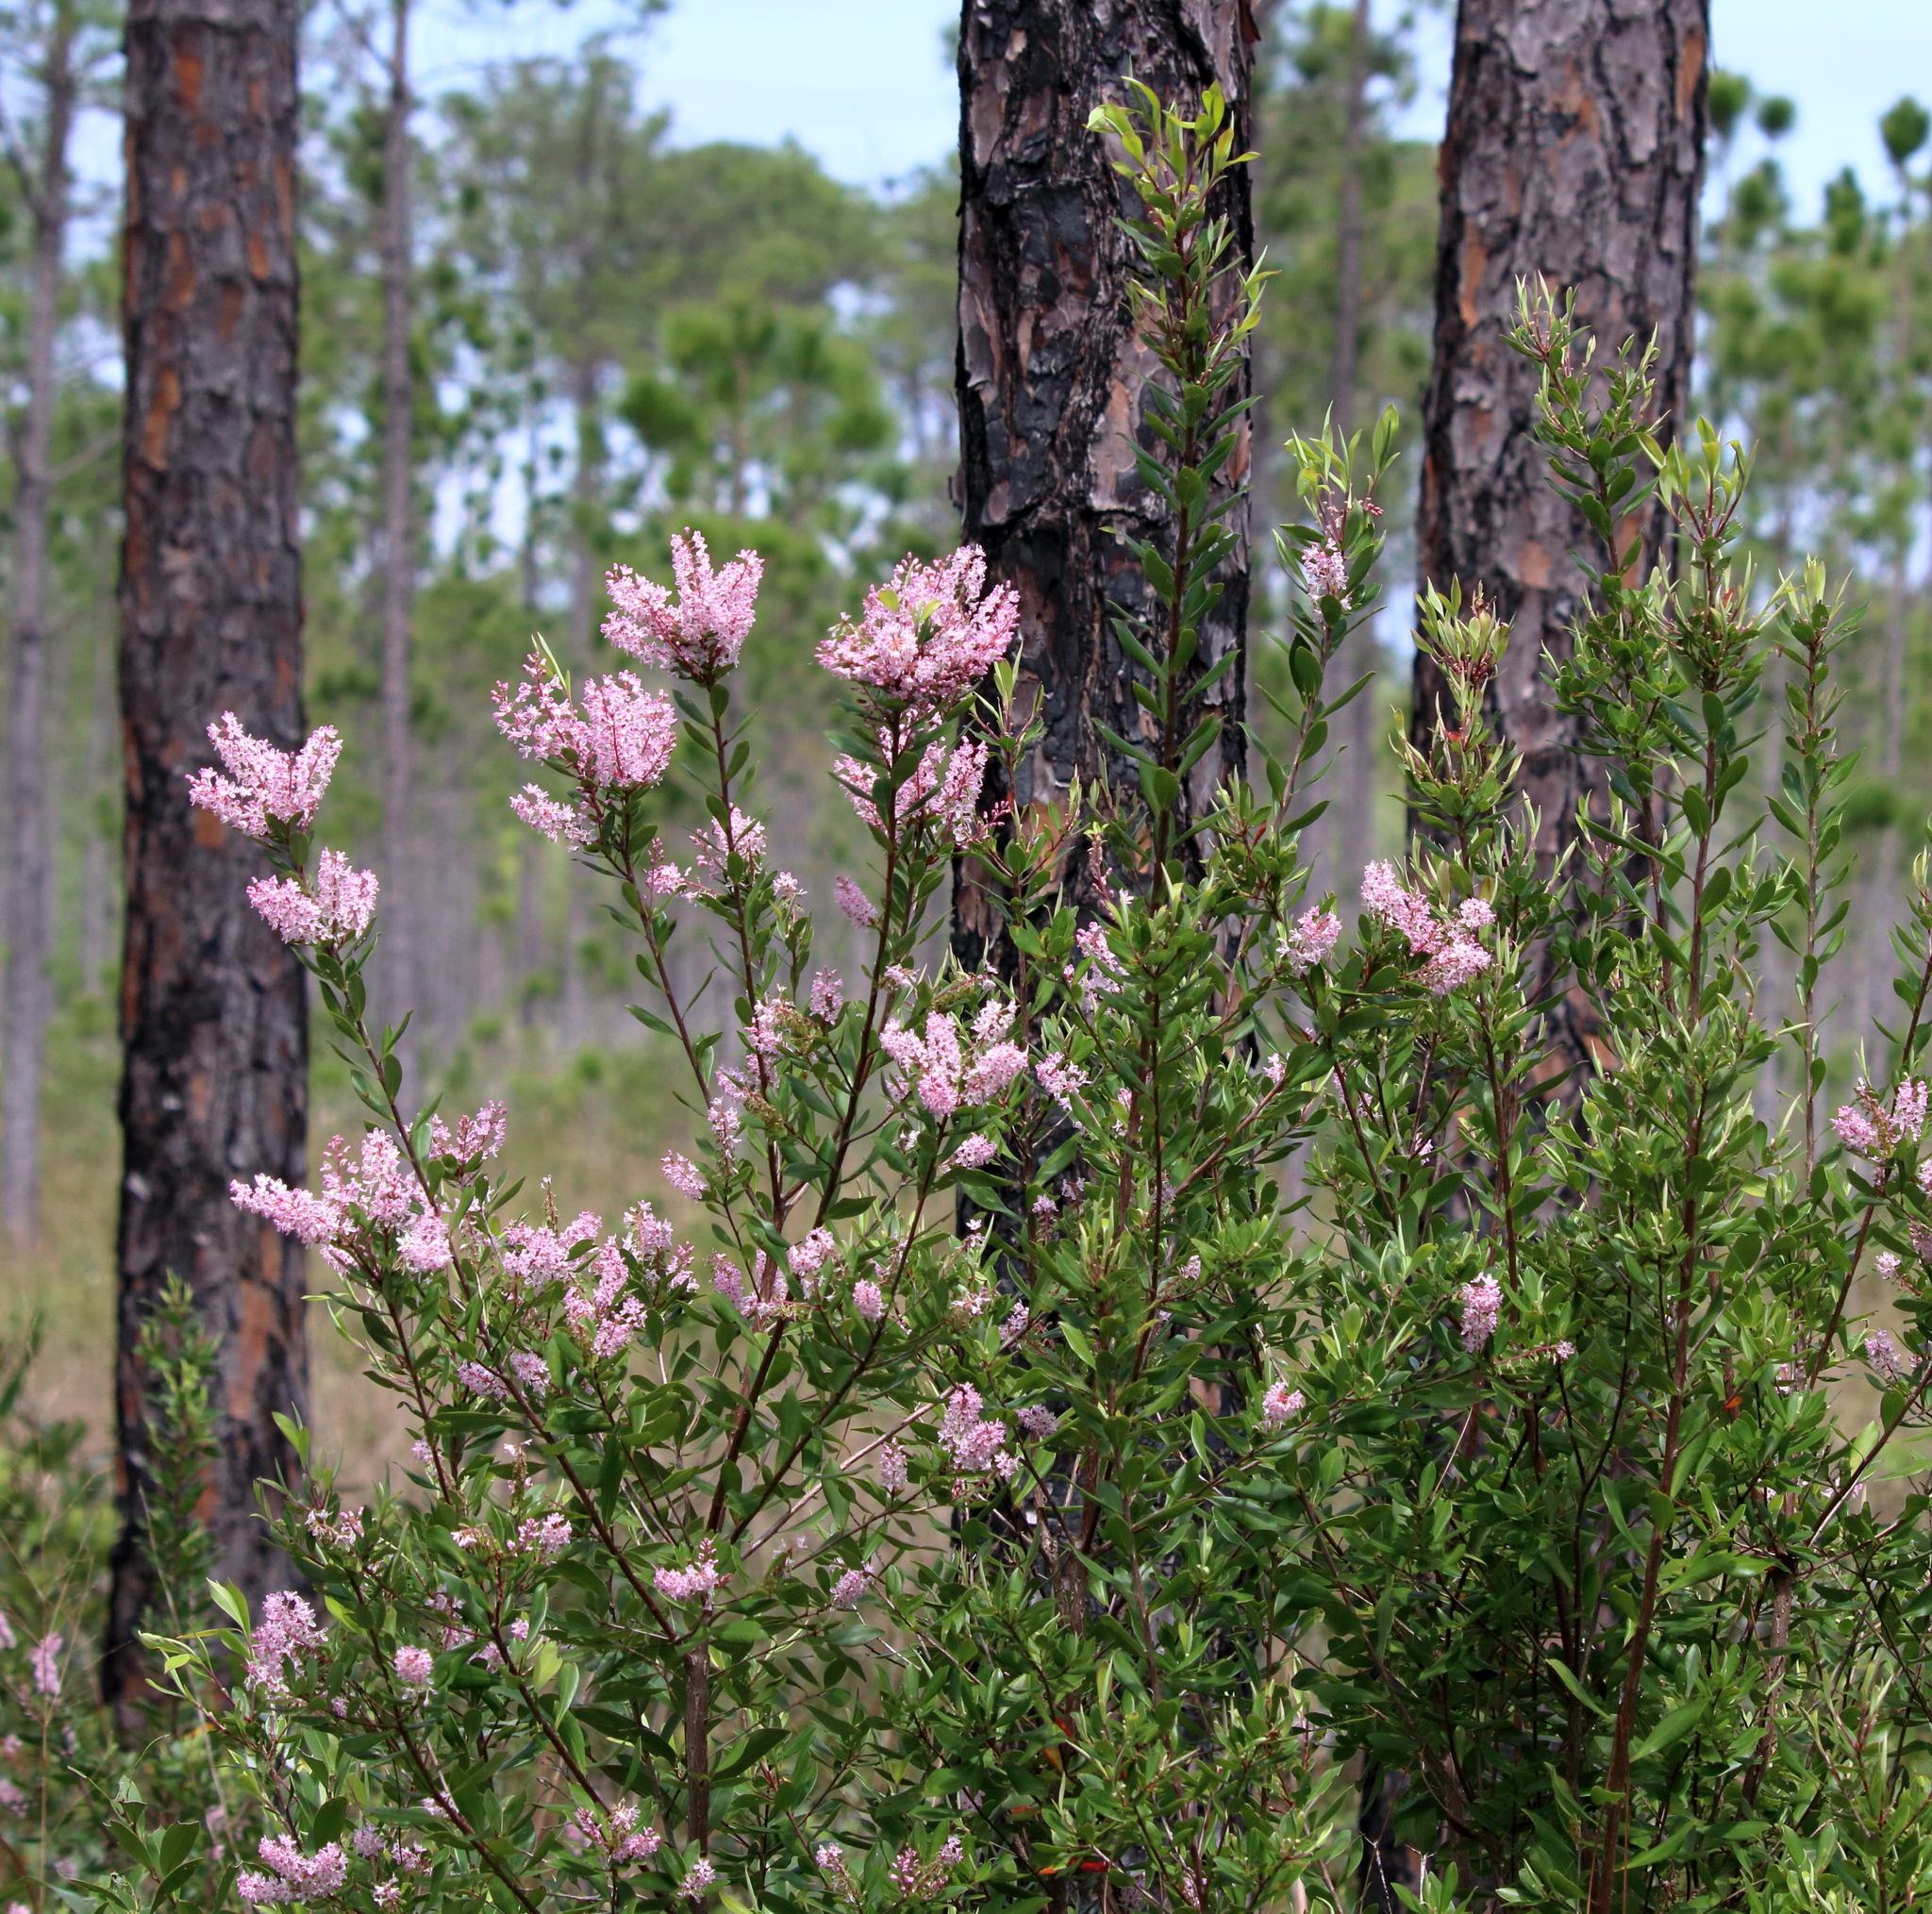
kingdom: Plantae
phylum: Tracheophyta
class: Magnoliopsida
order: Ericales
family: Cyrillaceae
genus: Cliftonia
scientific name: Cliftonia monophylla
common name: Titi
